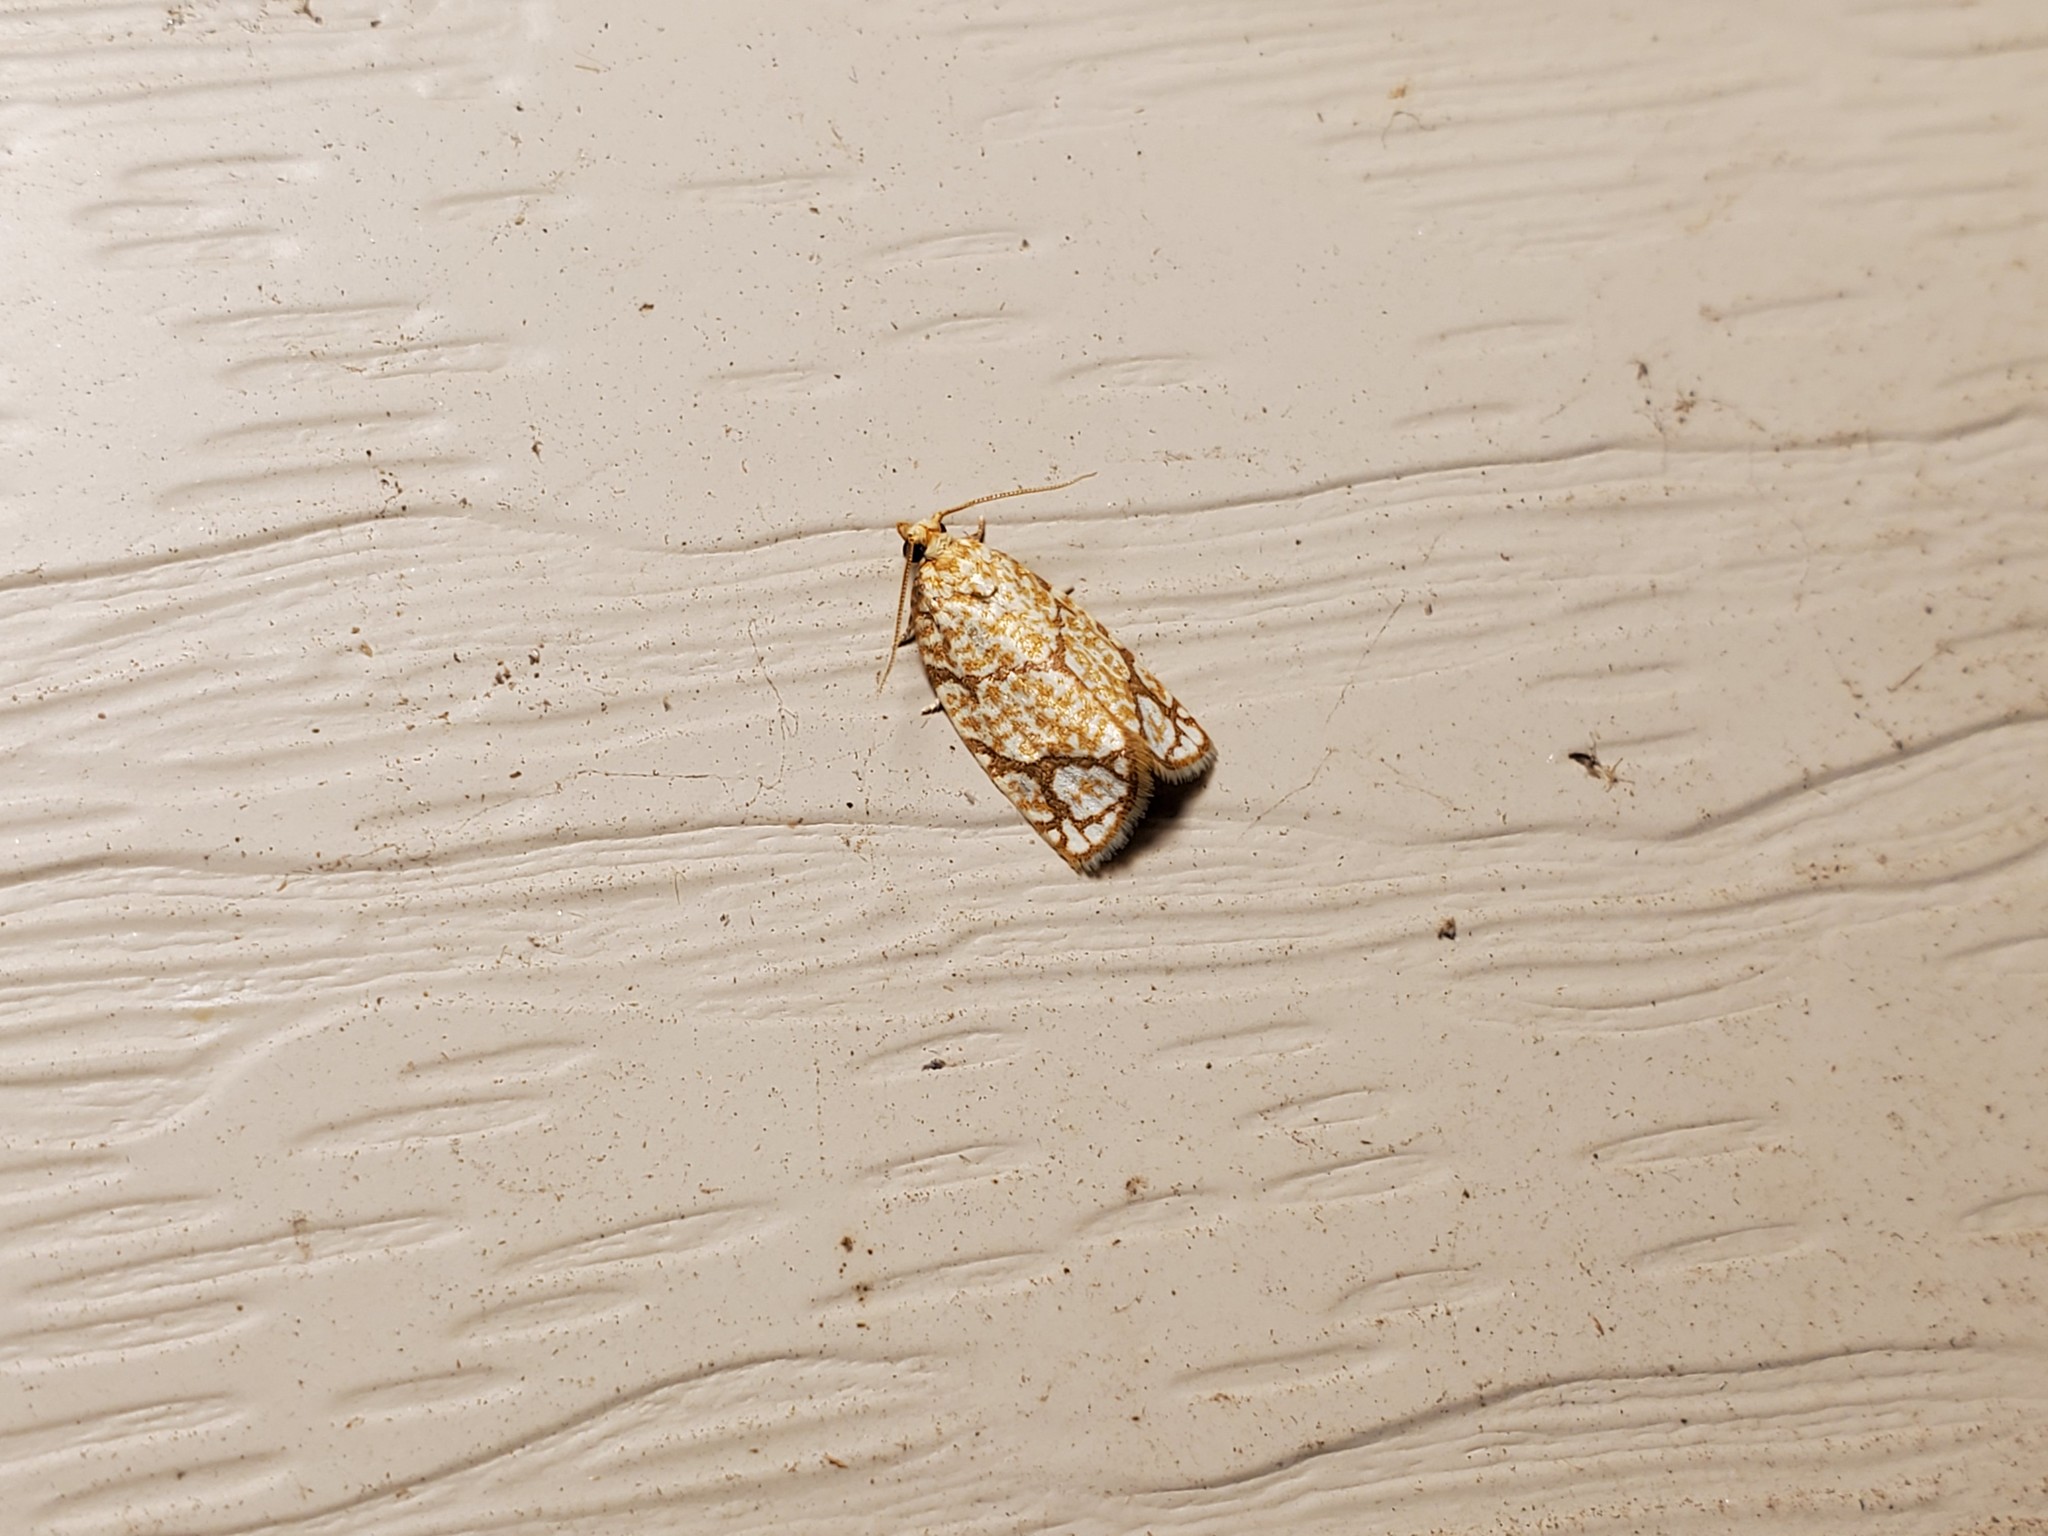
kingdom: Animalia
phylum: Arthropoda
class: Insecta
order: Lepidoptera
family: Tortricidae
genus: Argyrotaenia
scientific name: Argyrotaenia quercifoliana
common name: Yellow-winged oak leafroller moth
